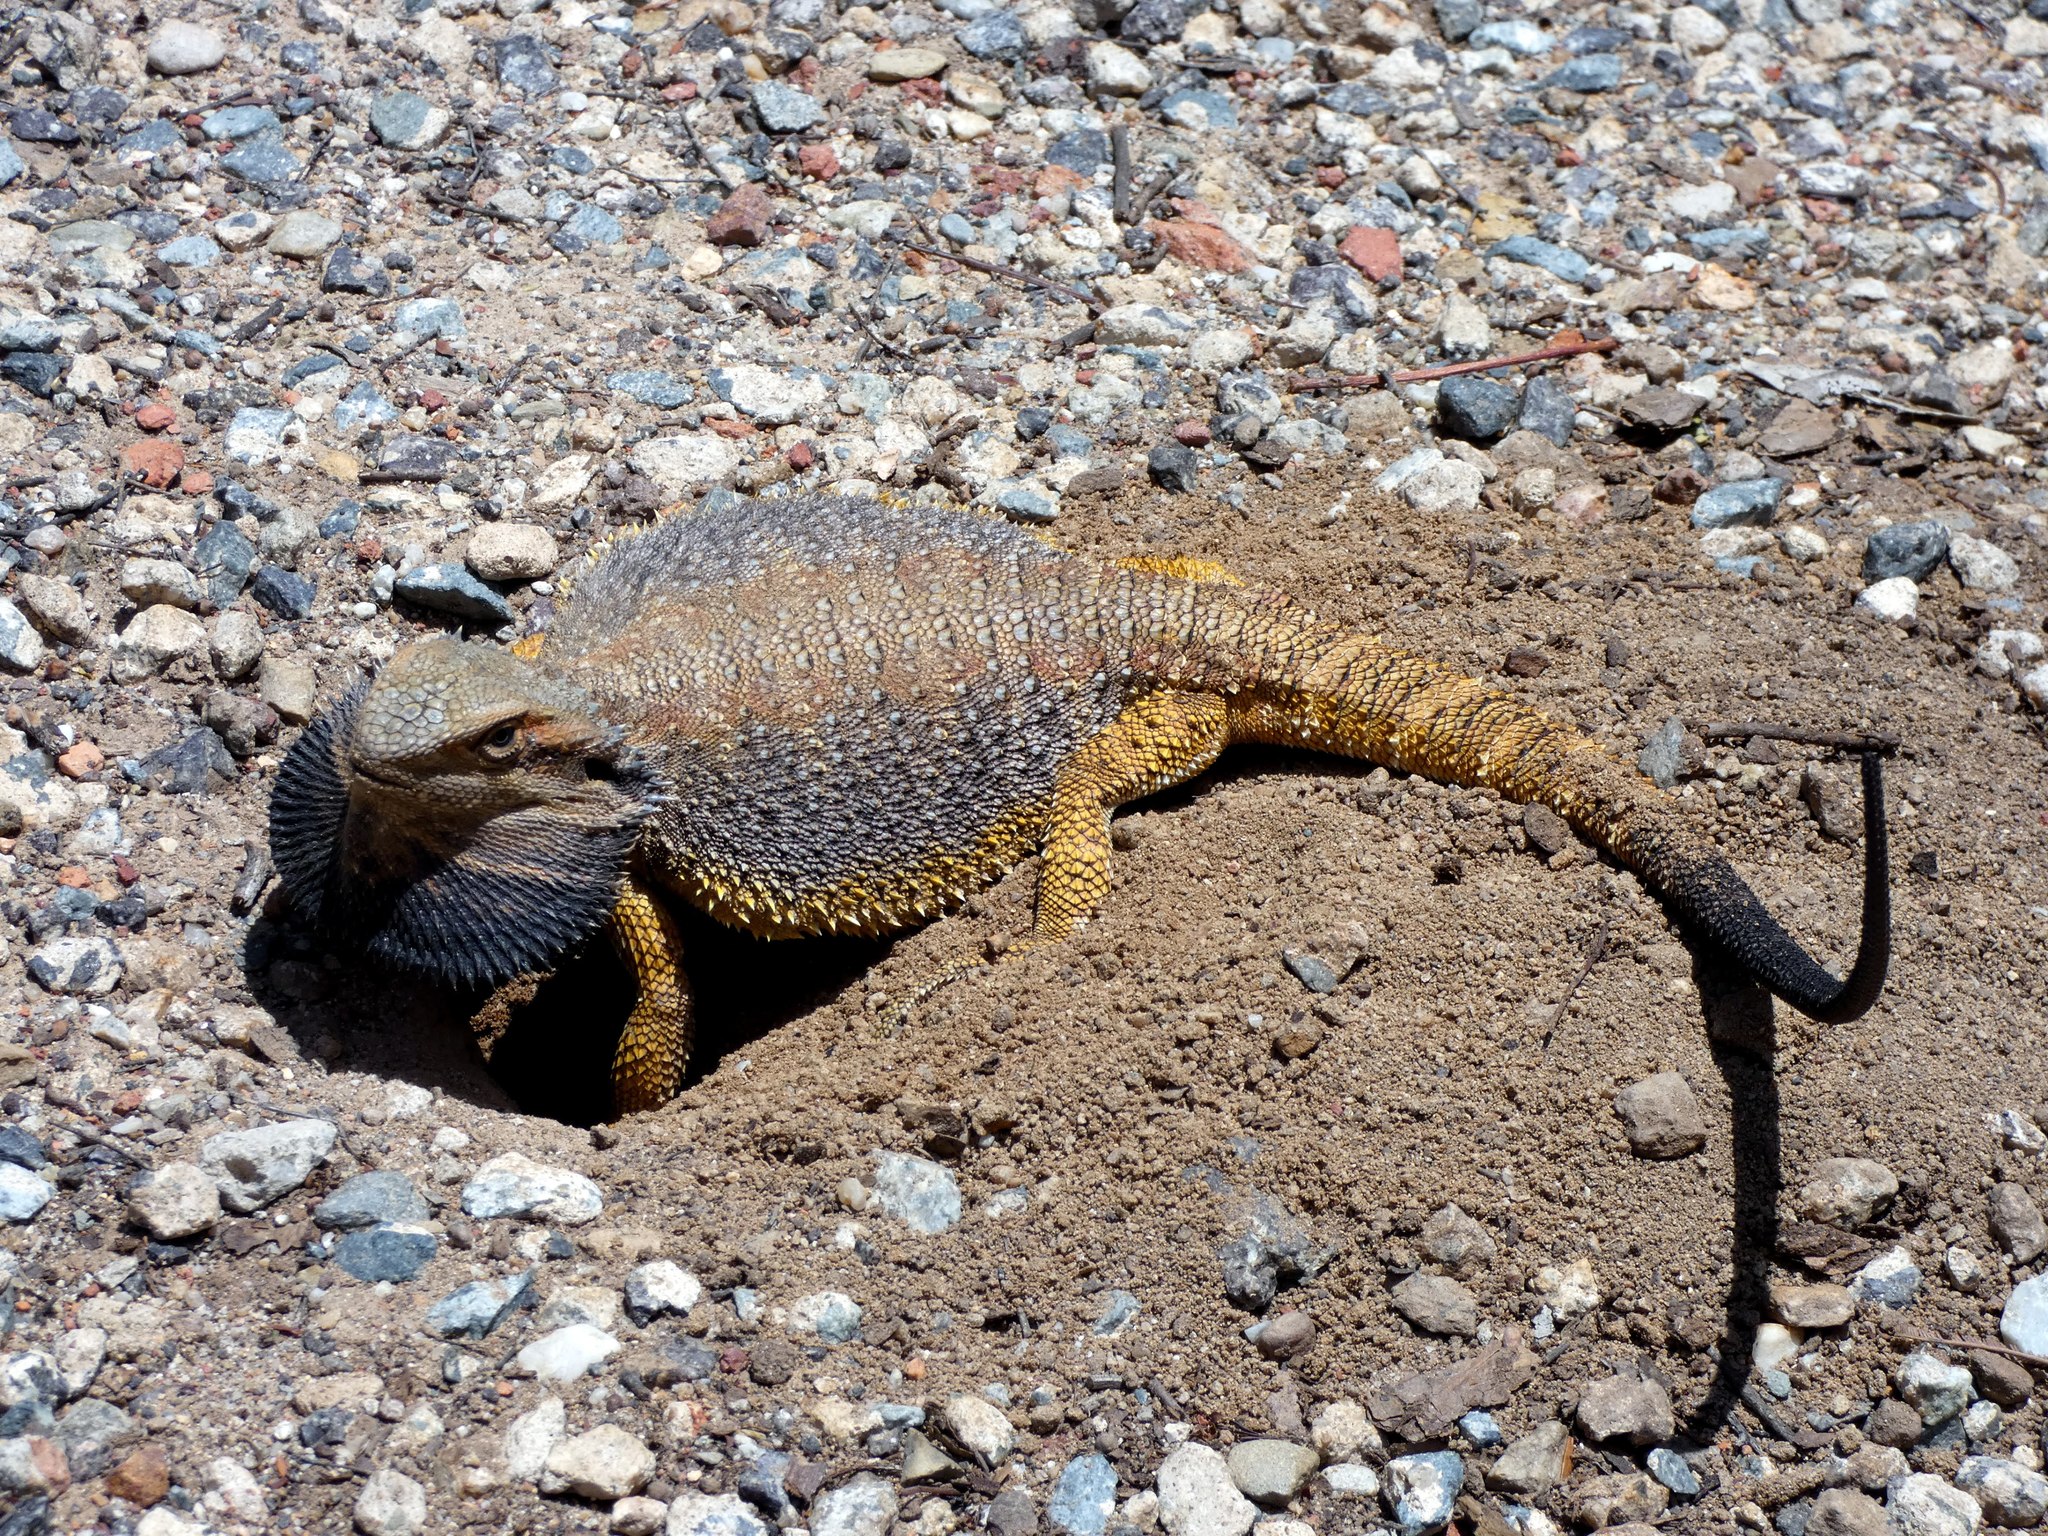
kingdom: Animalia
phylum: Chordata
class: Squamata
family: Agamidae
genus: Pogona
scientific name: Pogona barbata
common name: Bearded dragon
